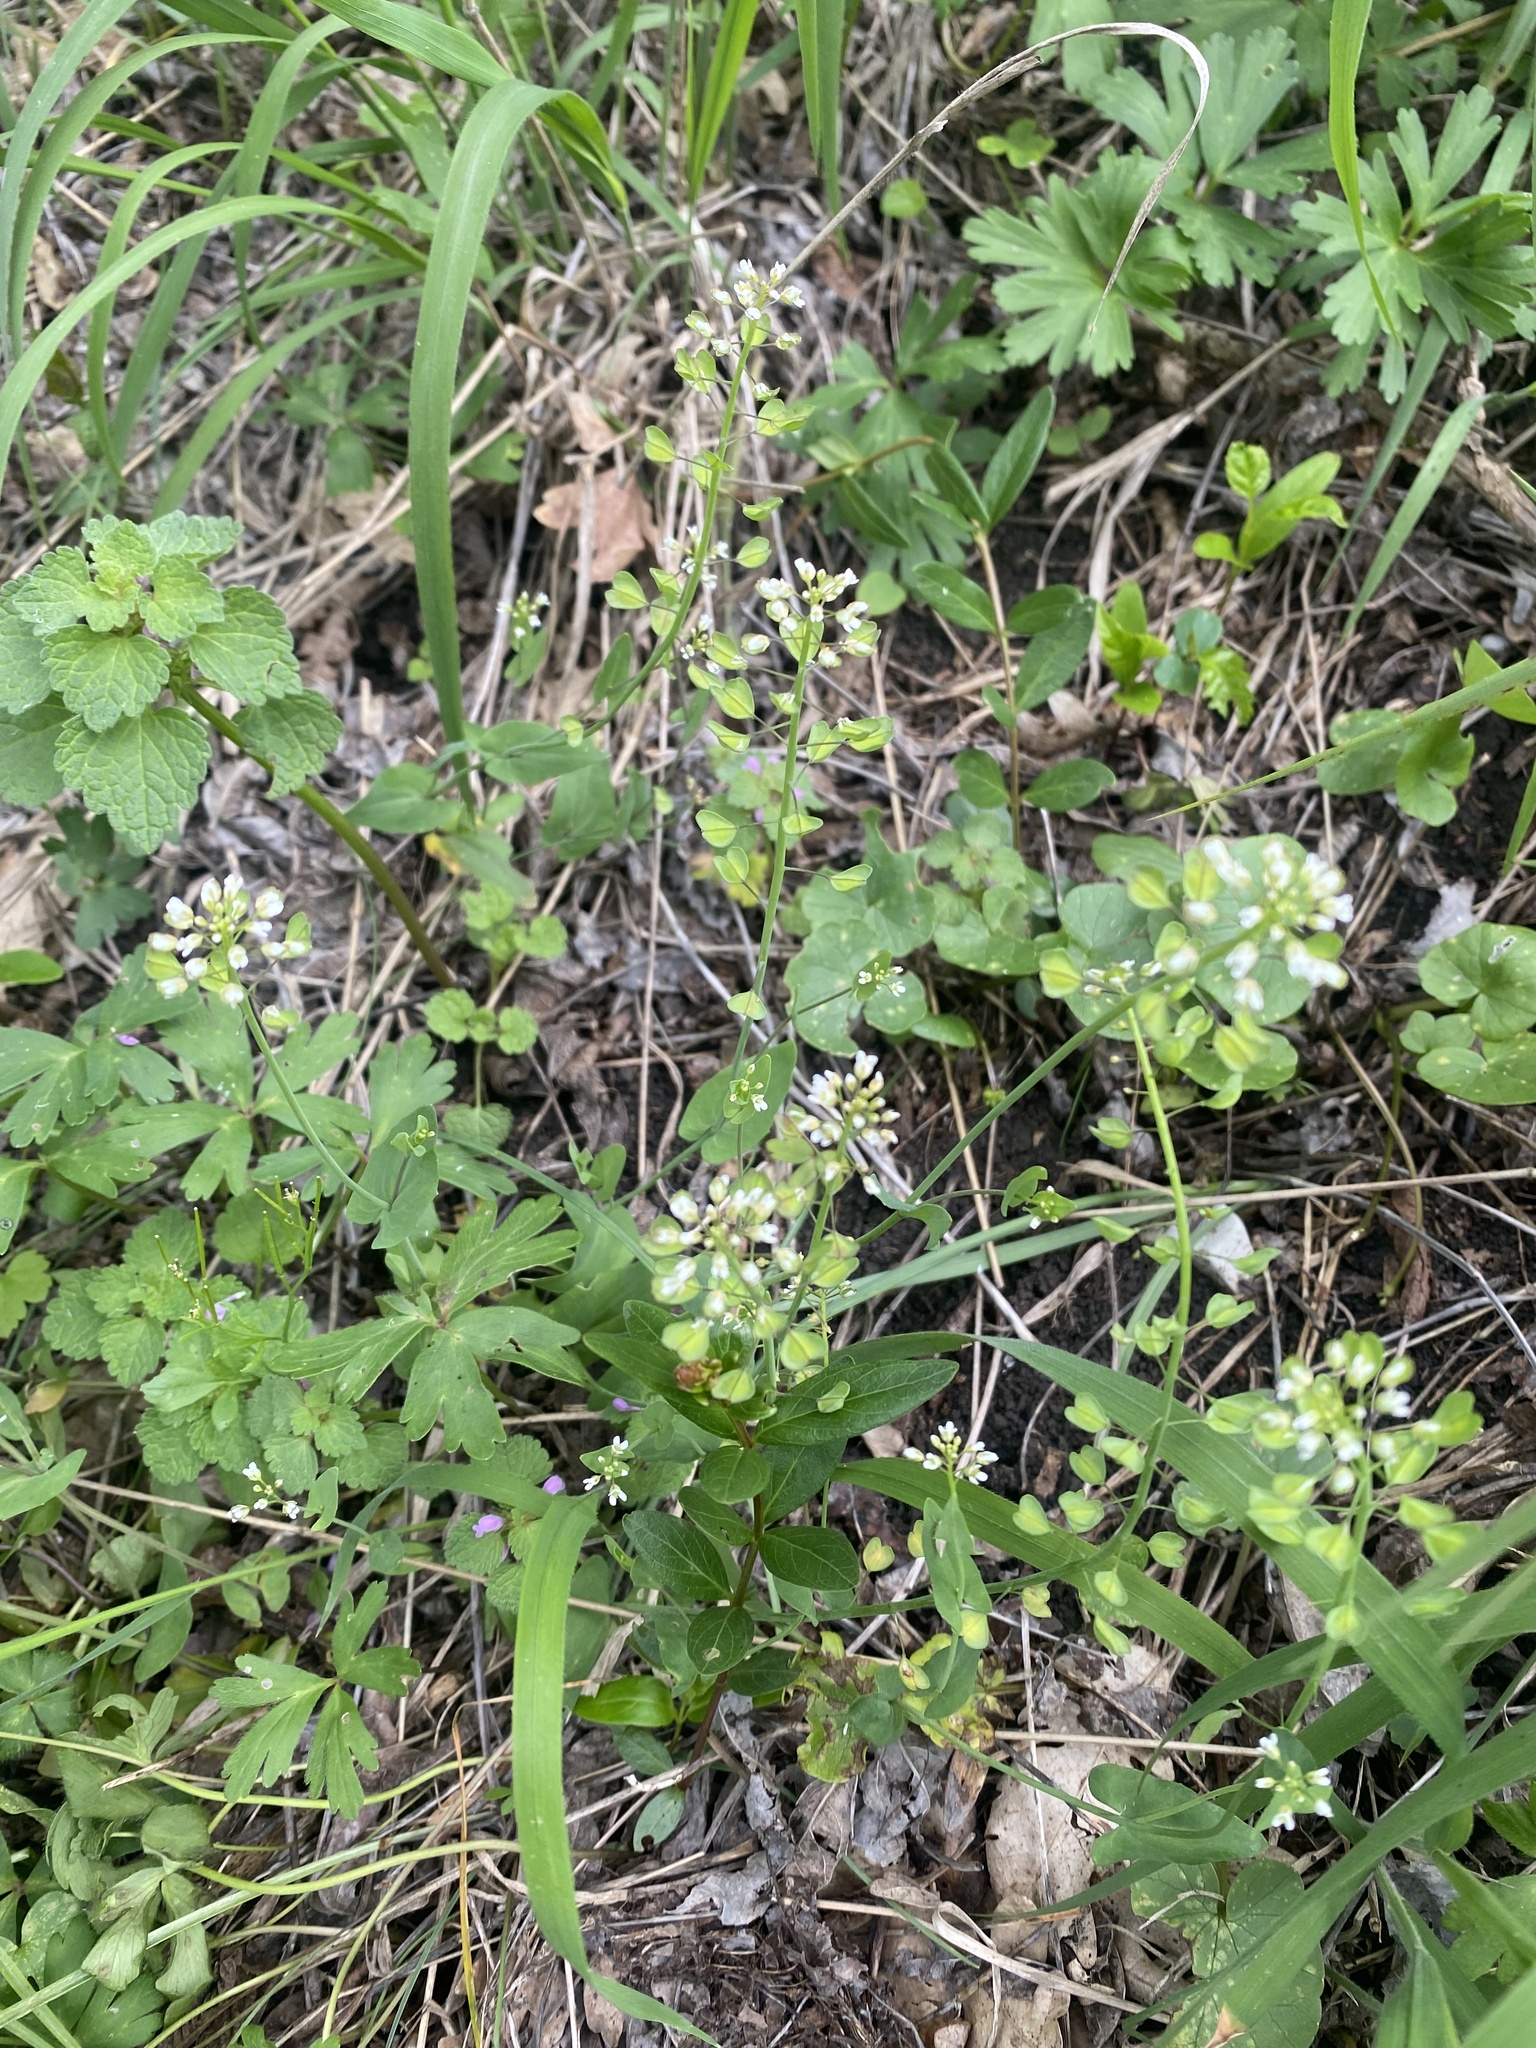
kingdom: Plantae
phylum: Tracheophyta
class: Magnoliopsida
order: Brassicales
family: Brassicaceae
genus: Noccaea
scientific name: Noccaea perfoliata
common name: Perfoliate pennycress
